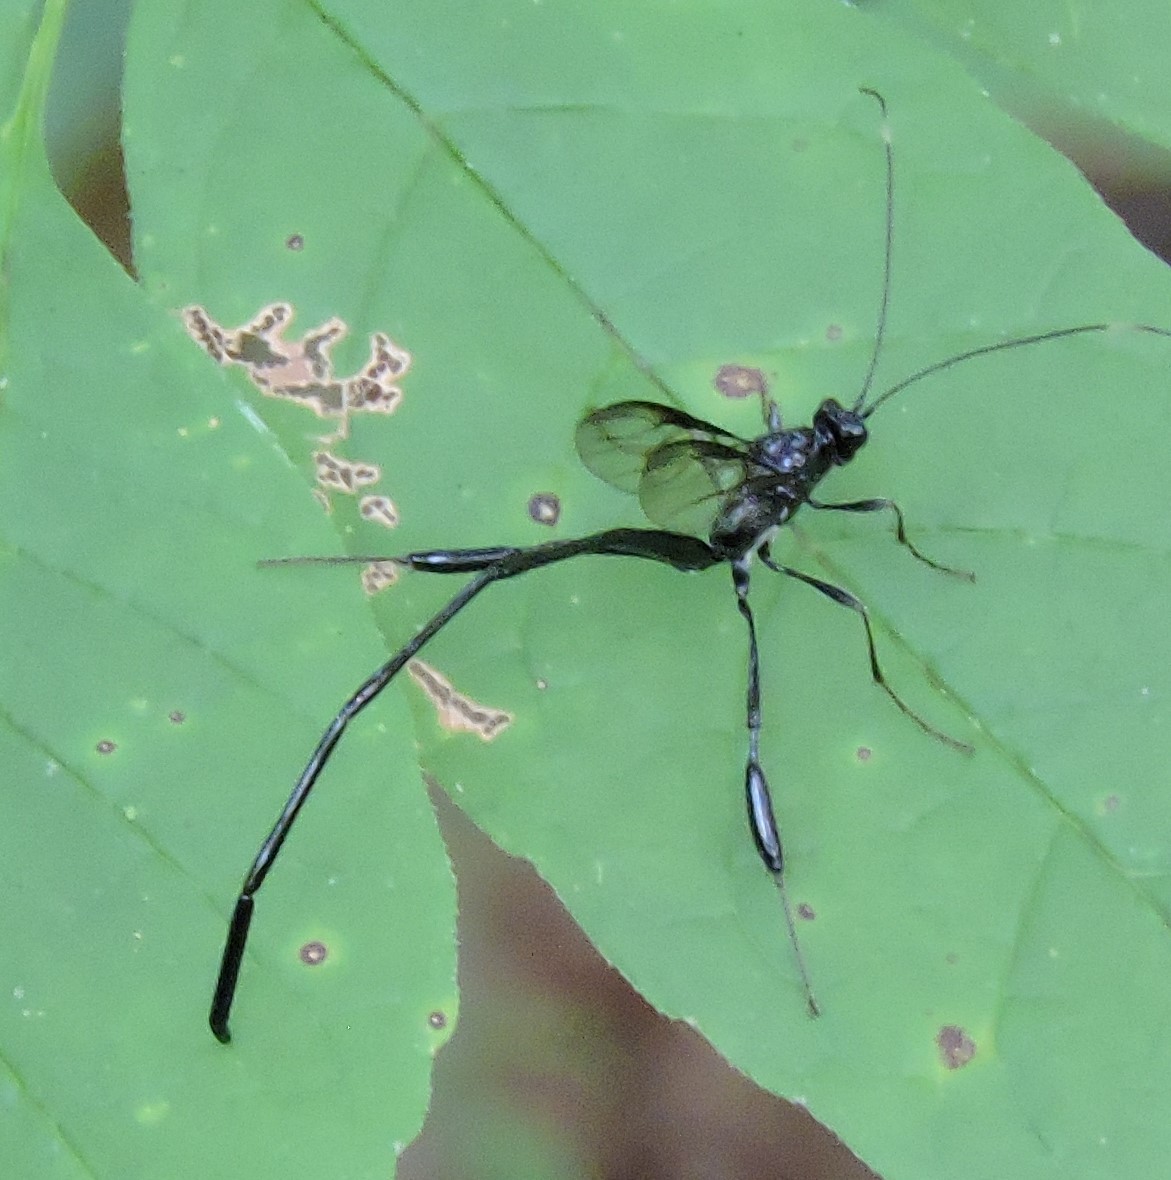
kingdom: Animalia
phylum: Arthropoda
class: Insecta
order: Hymenoptera
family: Pelecinidae
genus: Pelecinus
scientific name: Pelecinus polyturator
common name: American pelecinid wasp
